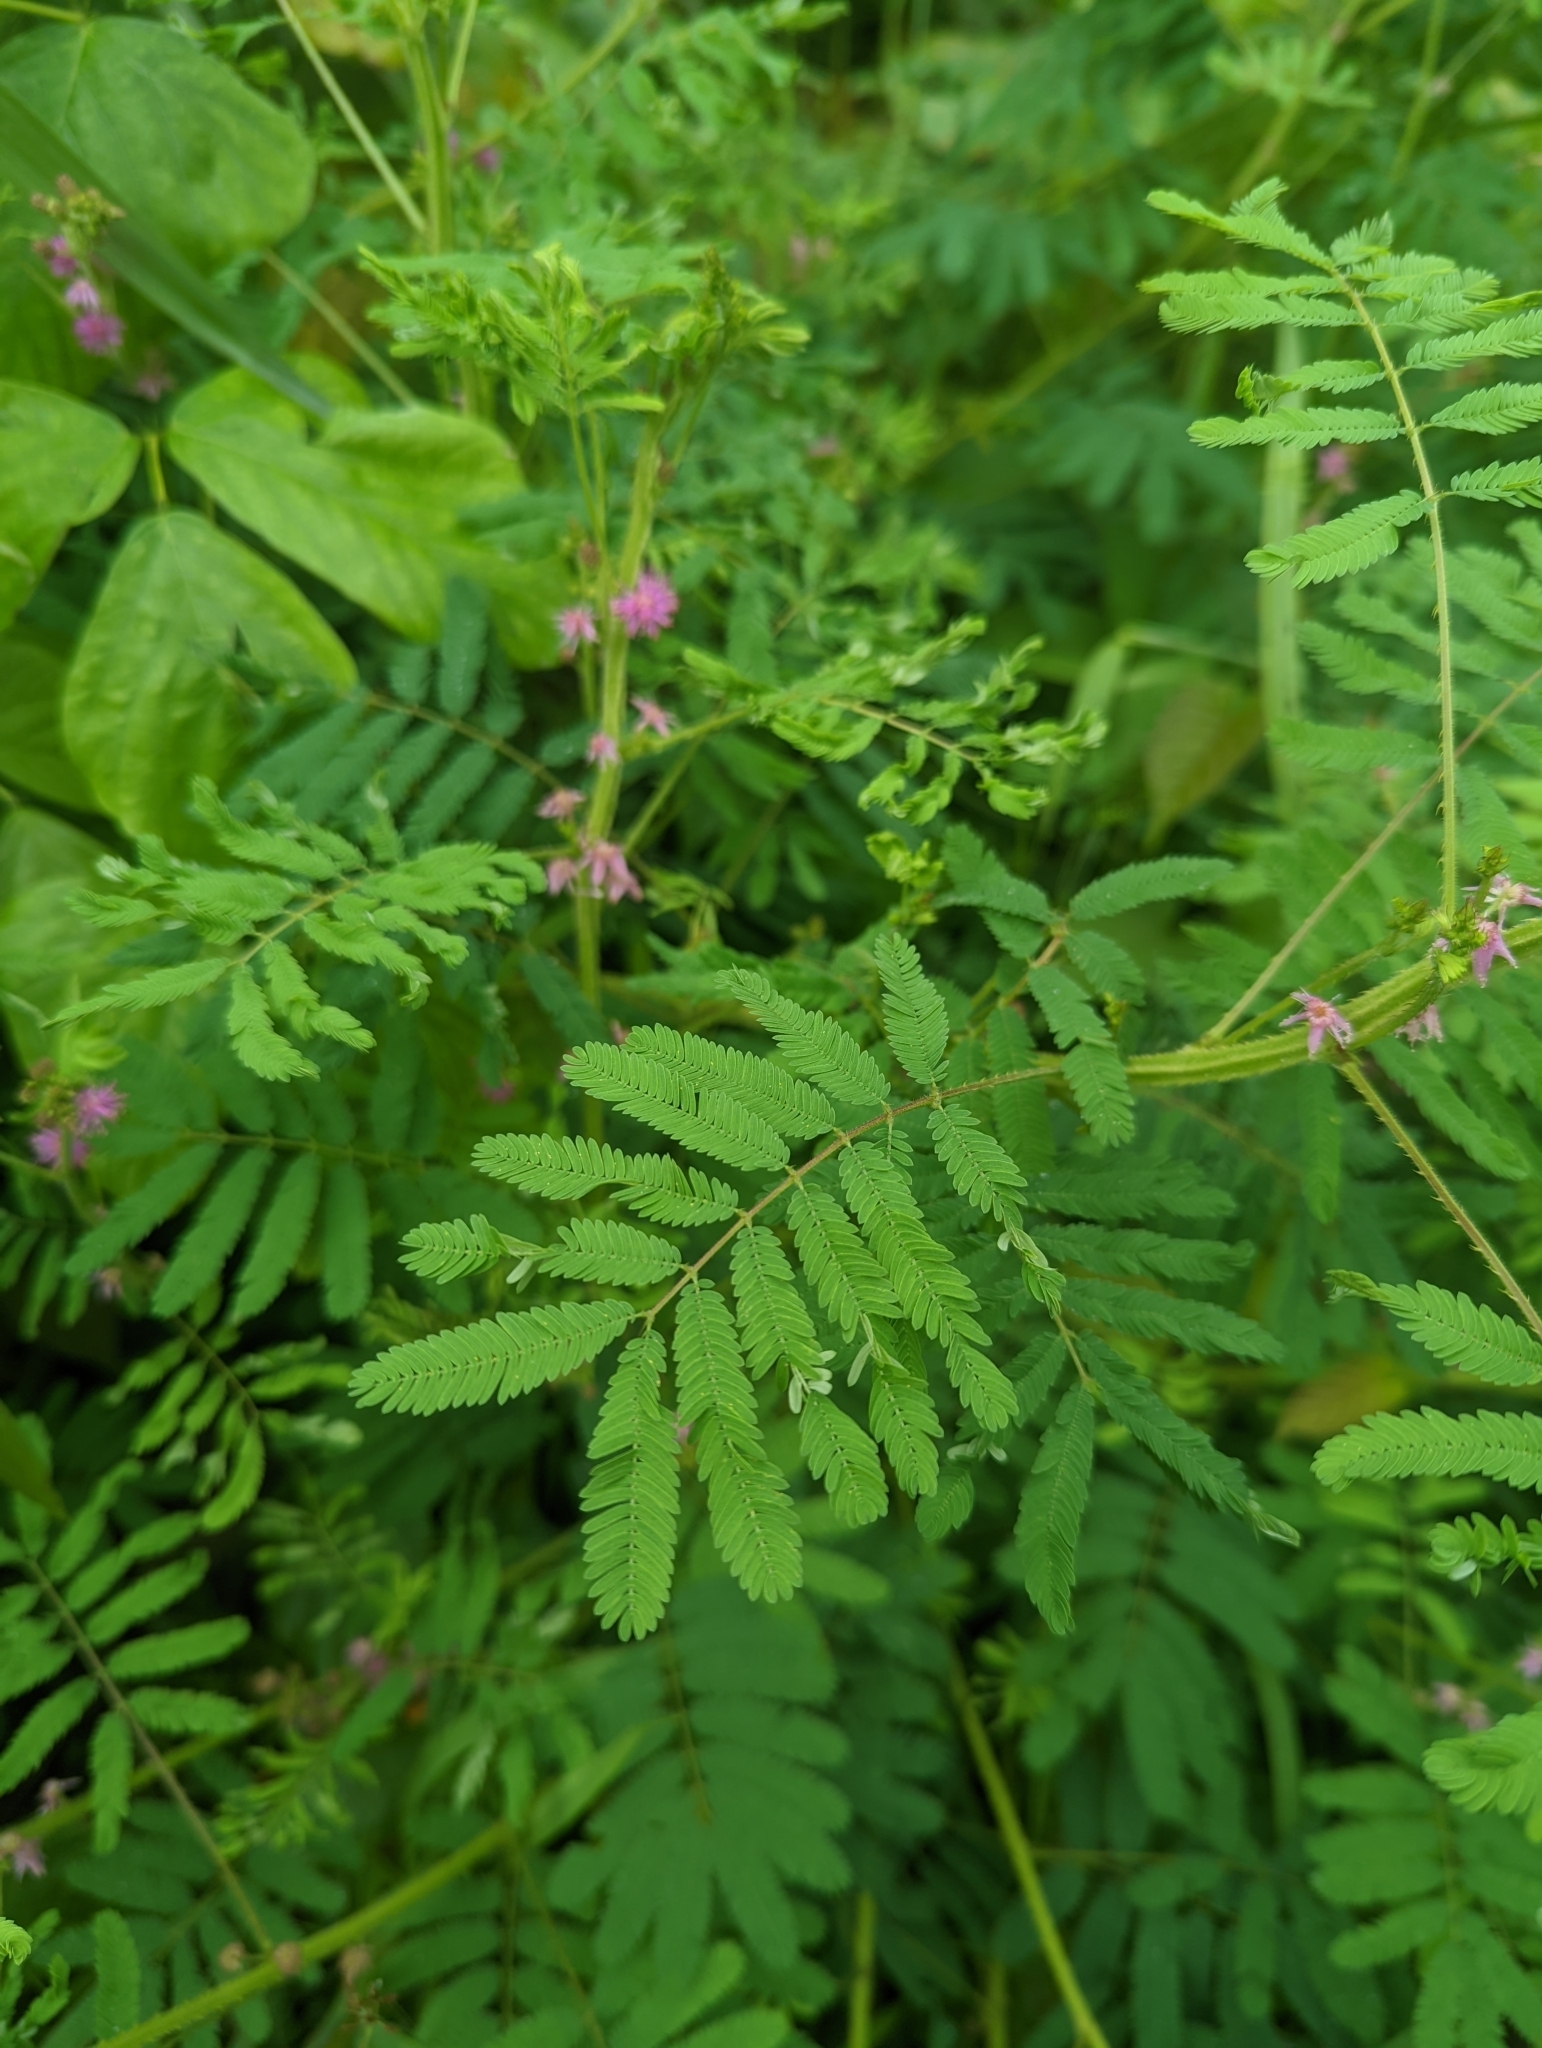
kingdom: Plantae
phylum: Tracheophyta
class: Magnoliopsida
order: Fabales
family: Fabaceae
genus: Mimosa
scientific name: Mimosa diplotricha
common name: Giant sensitive-plant
